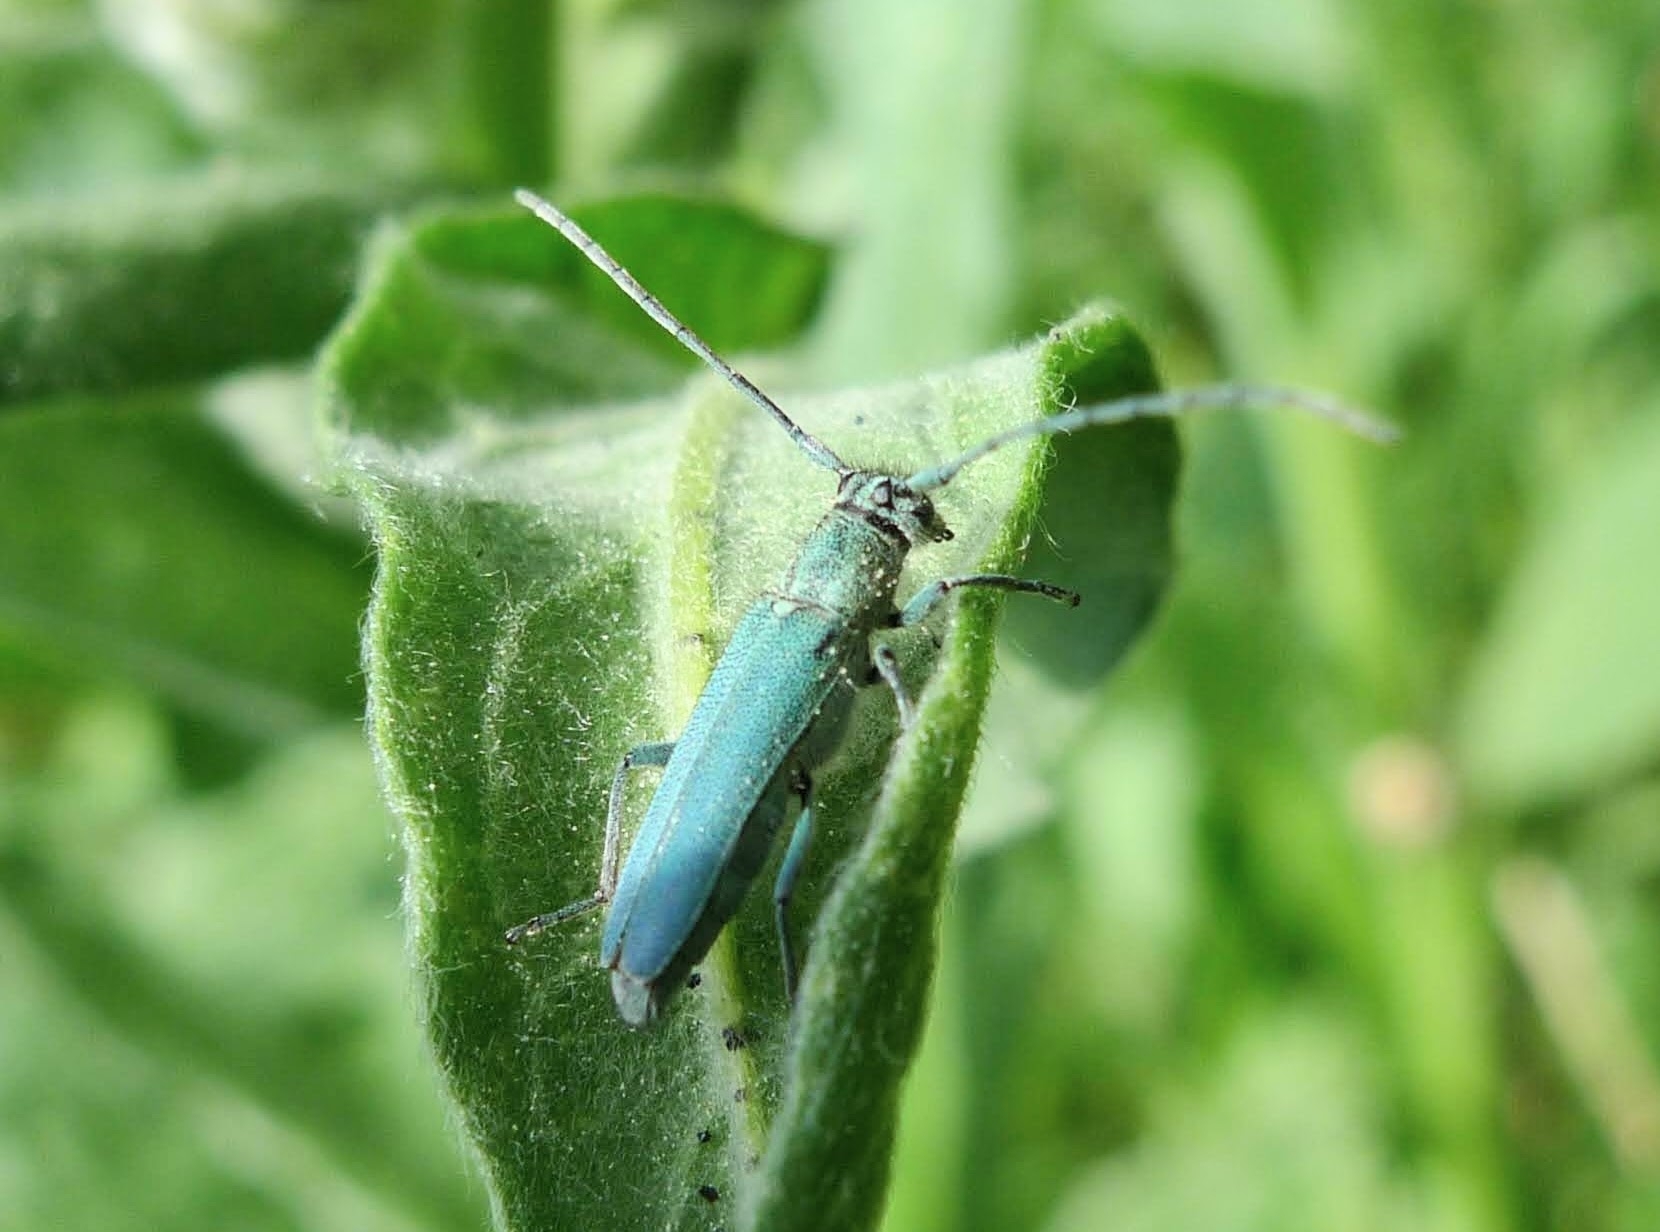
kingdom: Animalia
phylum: Arthropoda
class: Insecta
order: Coleoptera
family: Cerambycidae
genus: Phytoecia
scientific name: Phytoecia coerulescens
